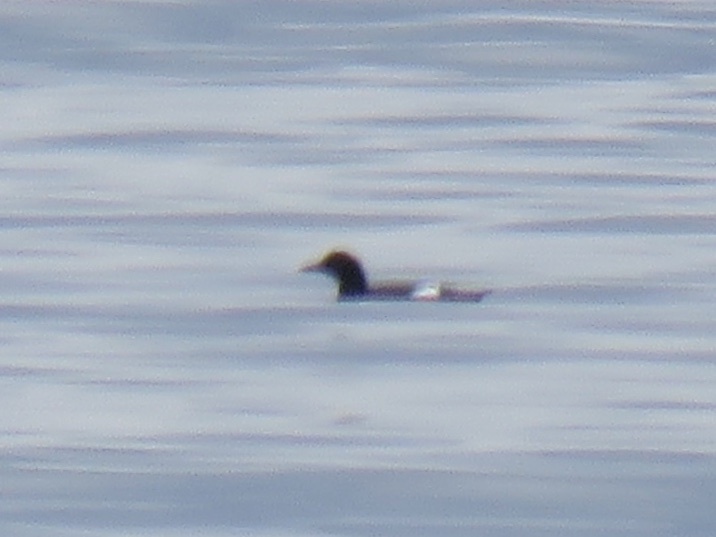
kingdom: Animalia
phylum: Chordata
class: Aves
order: Charadriiformes
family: Alcidae
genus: Cepphus
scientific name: Cepphus columba
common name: Pigeon guillemot
